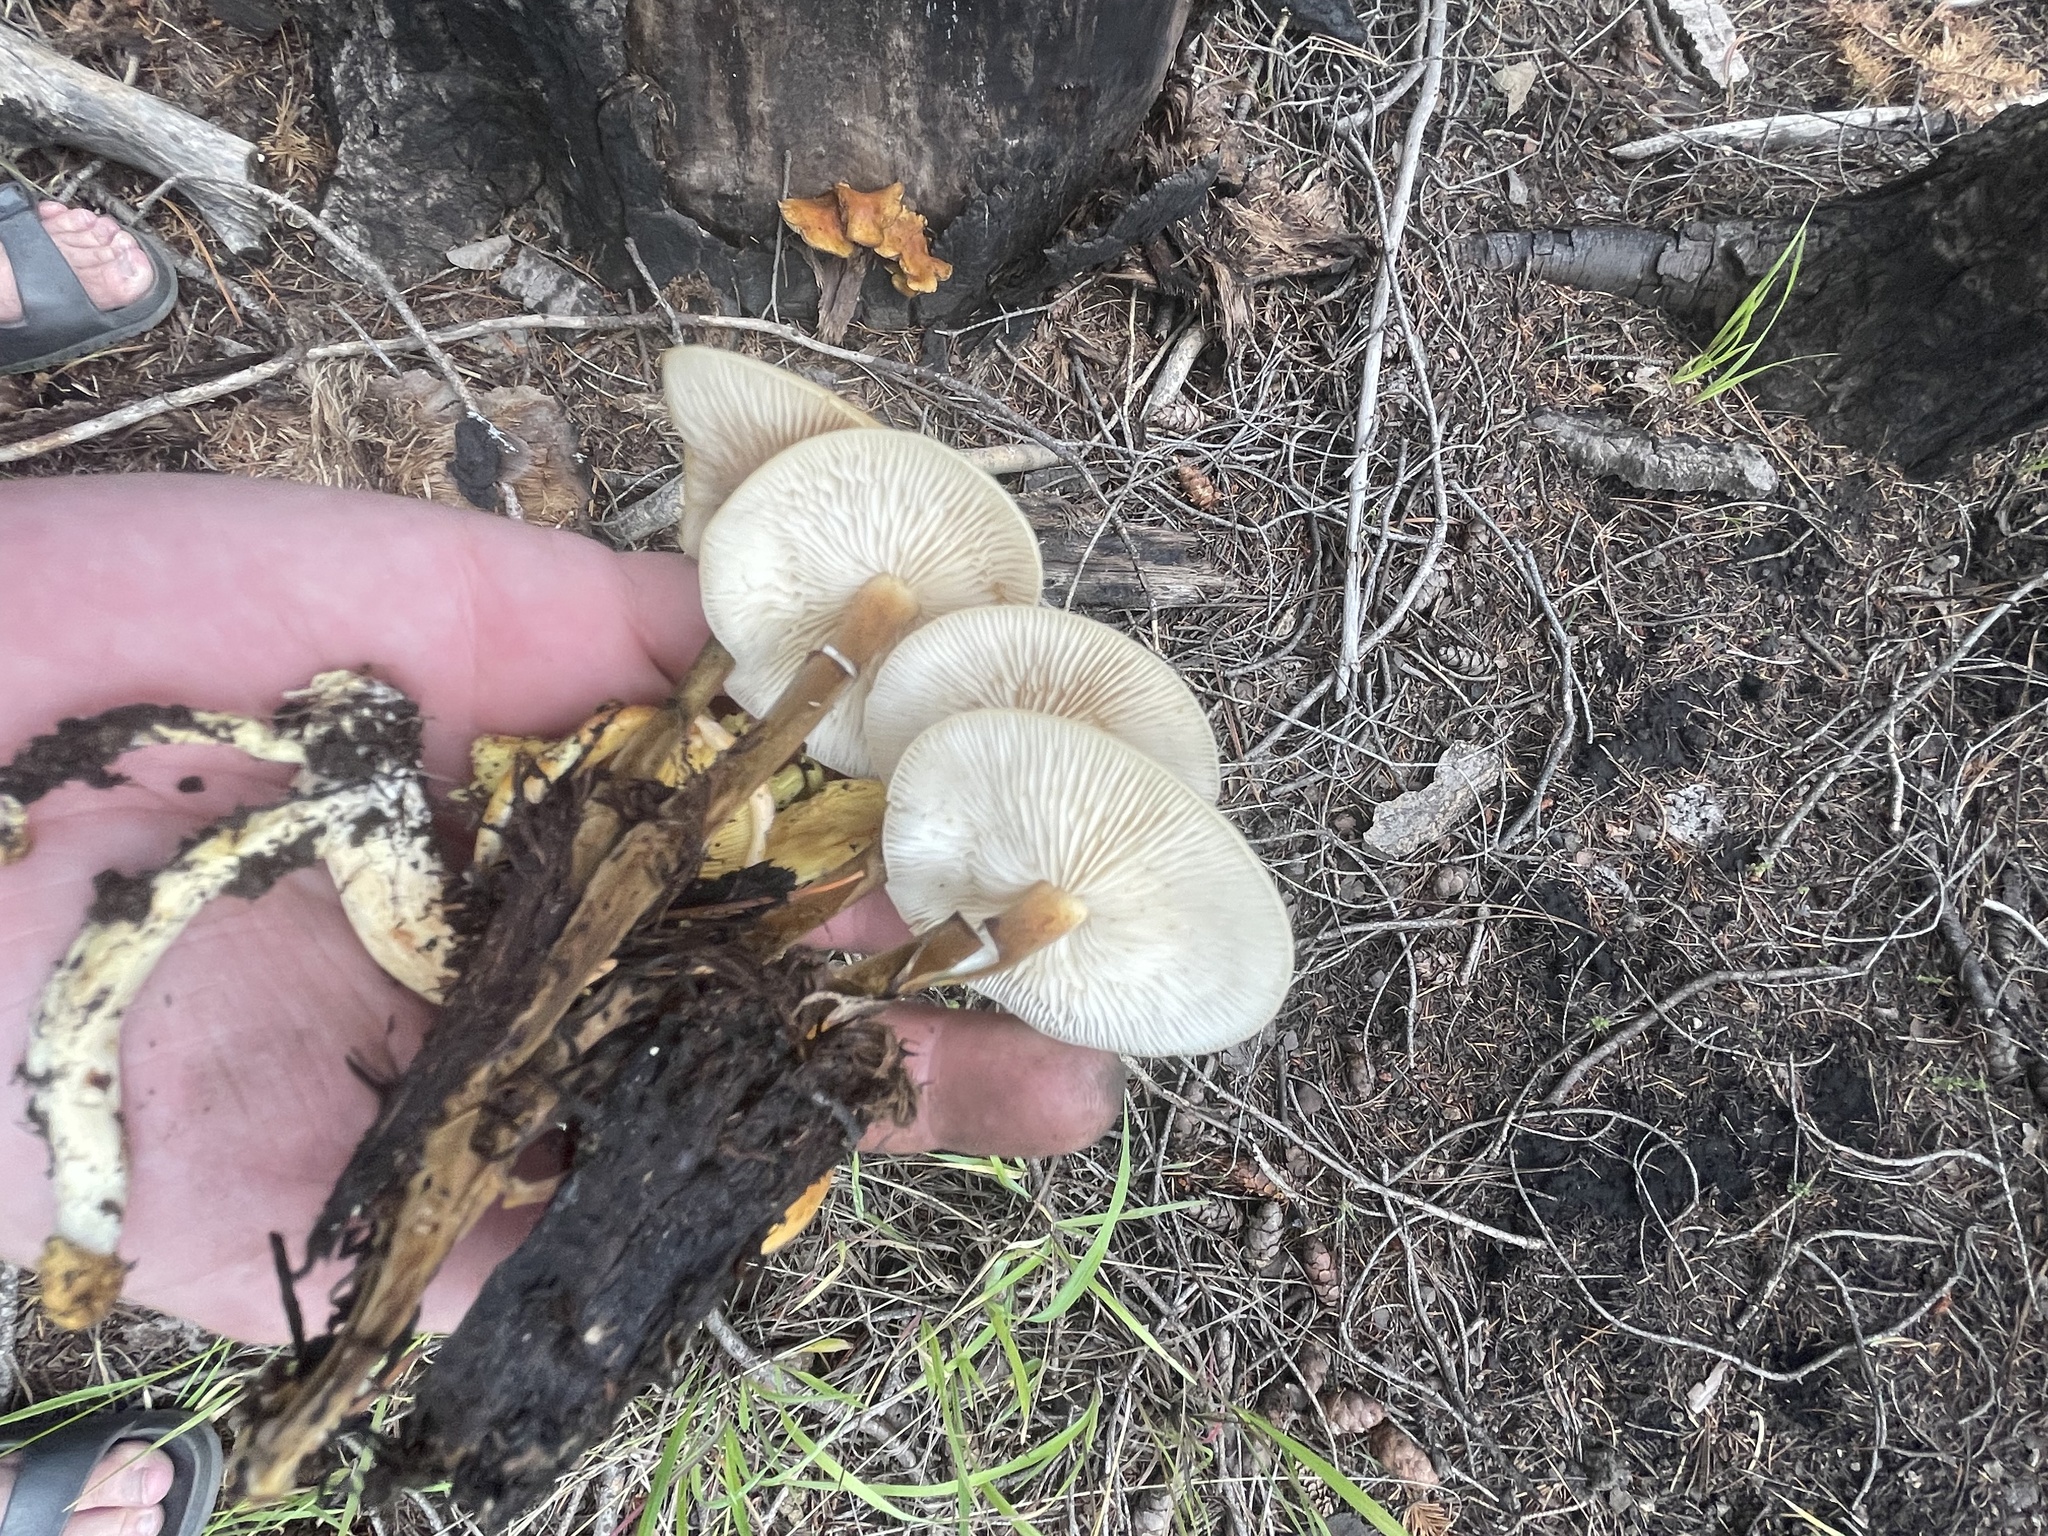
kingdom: Fungi
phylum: Basidiomycota
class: Agaricomycetes
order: Agaricales
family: Physalacriaceae
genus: Flammulina
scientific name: Flammulina populicola
